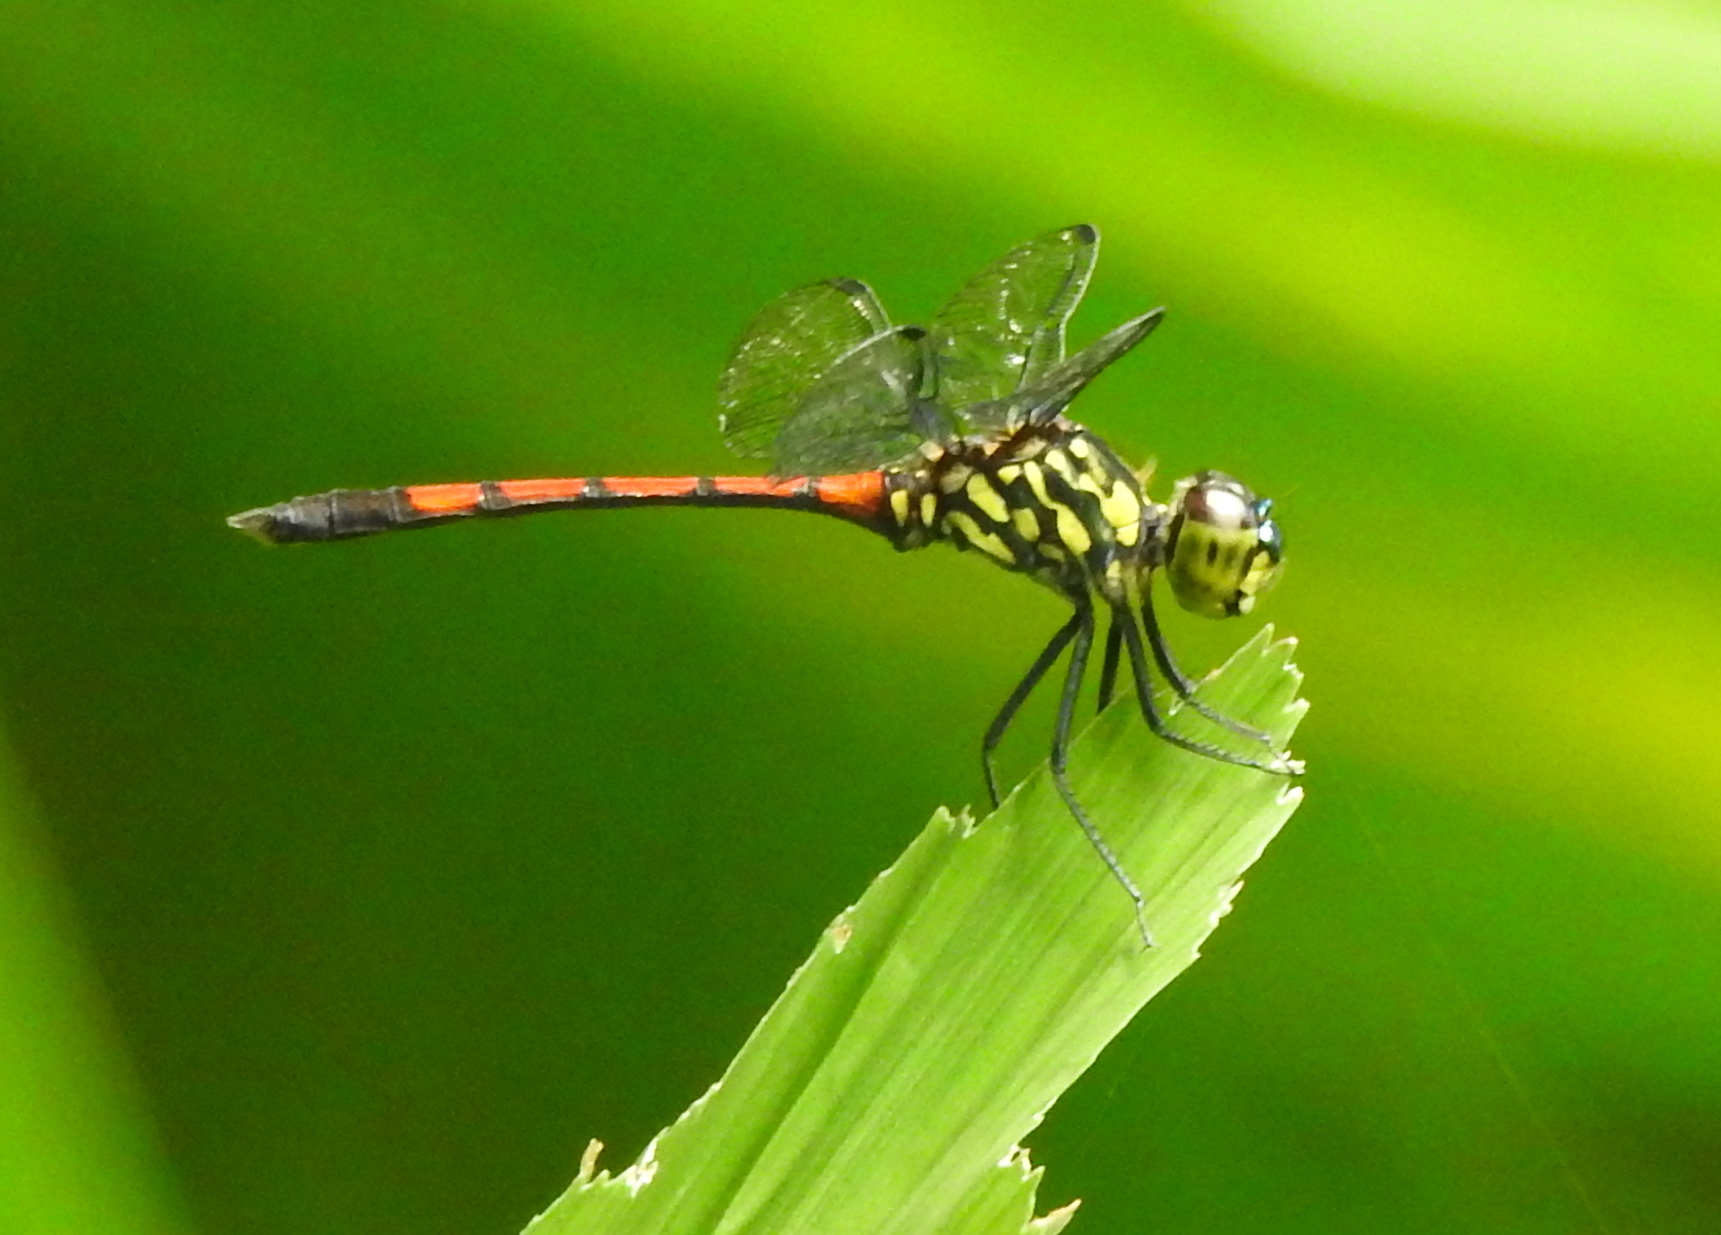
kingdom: Animalia
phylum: Arthropoda
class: Insecta
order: Odonata
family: Libellulidae
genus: Agrionoptera
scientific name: Agrionoptera insignis
